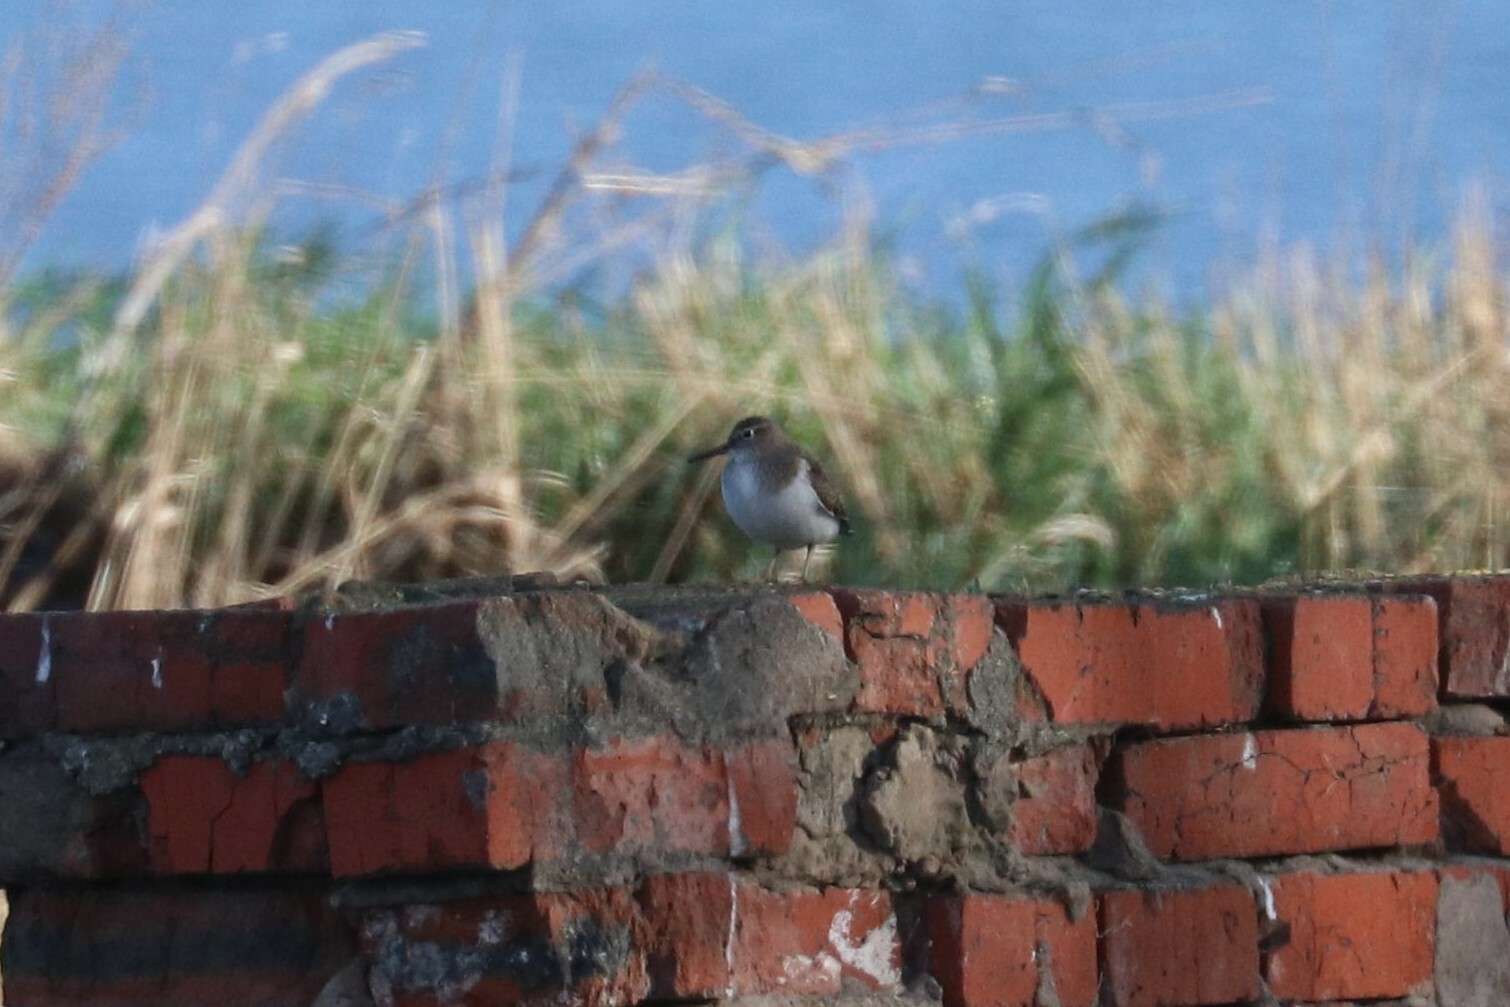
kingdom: Animalia
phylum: Chordata
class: Aves
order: Charadriiformes
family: Scolopacidae
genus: Actitis
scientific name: Actitis hypoleucos
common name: Common sandpiper
